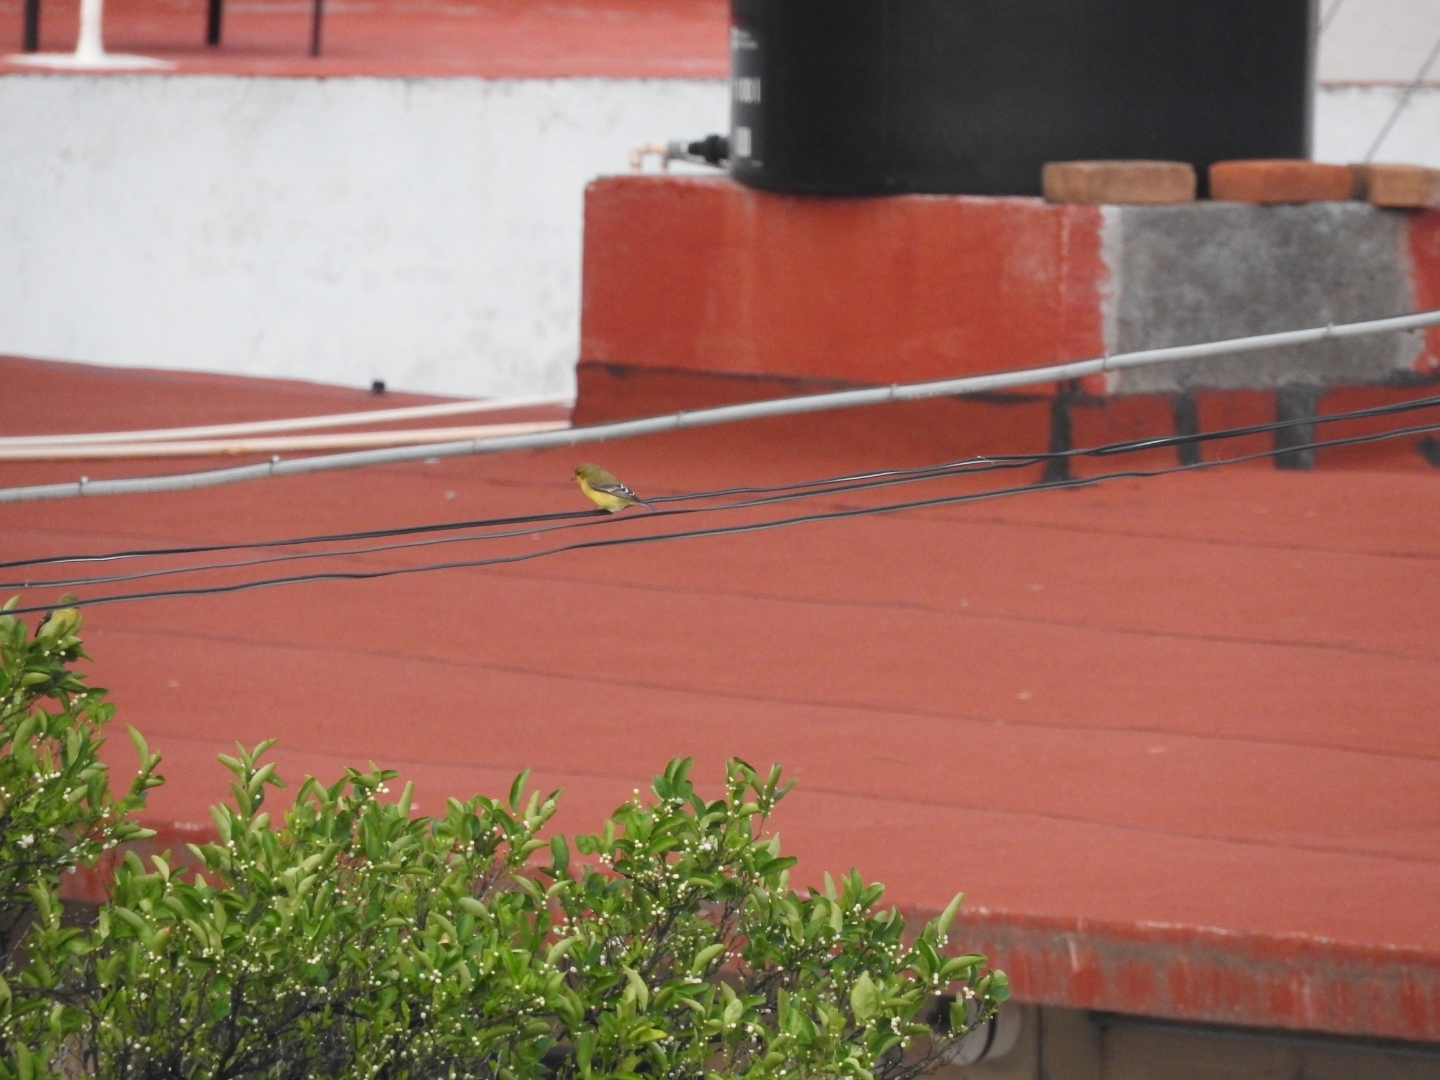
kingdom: Animalia
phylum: Chordata
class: Aves
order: Passeriformes
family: Fringillidae
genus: Spinus
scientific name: Spinus psaltria
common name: Lesser goldfinch
